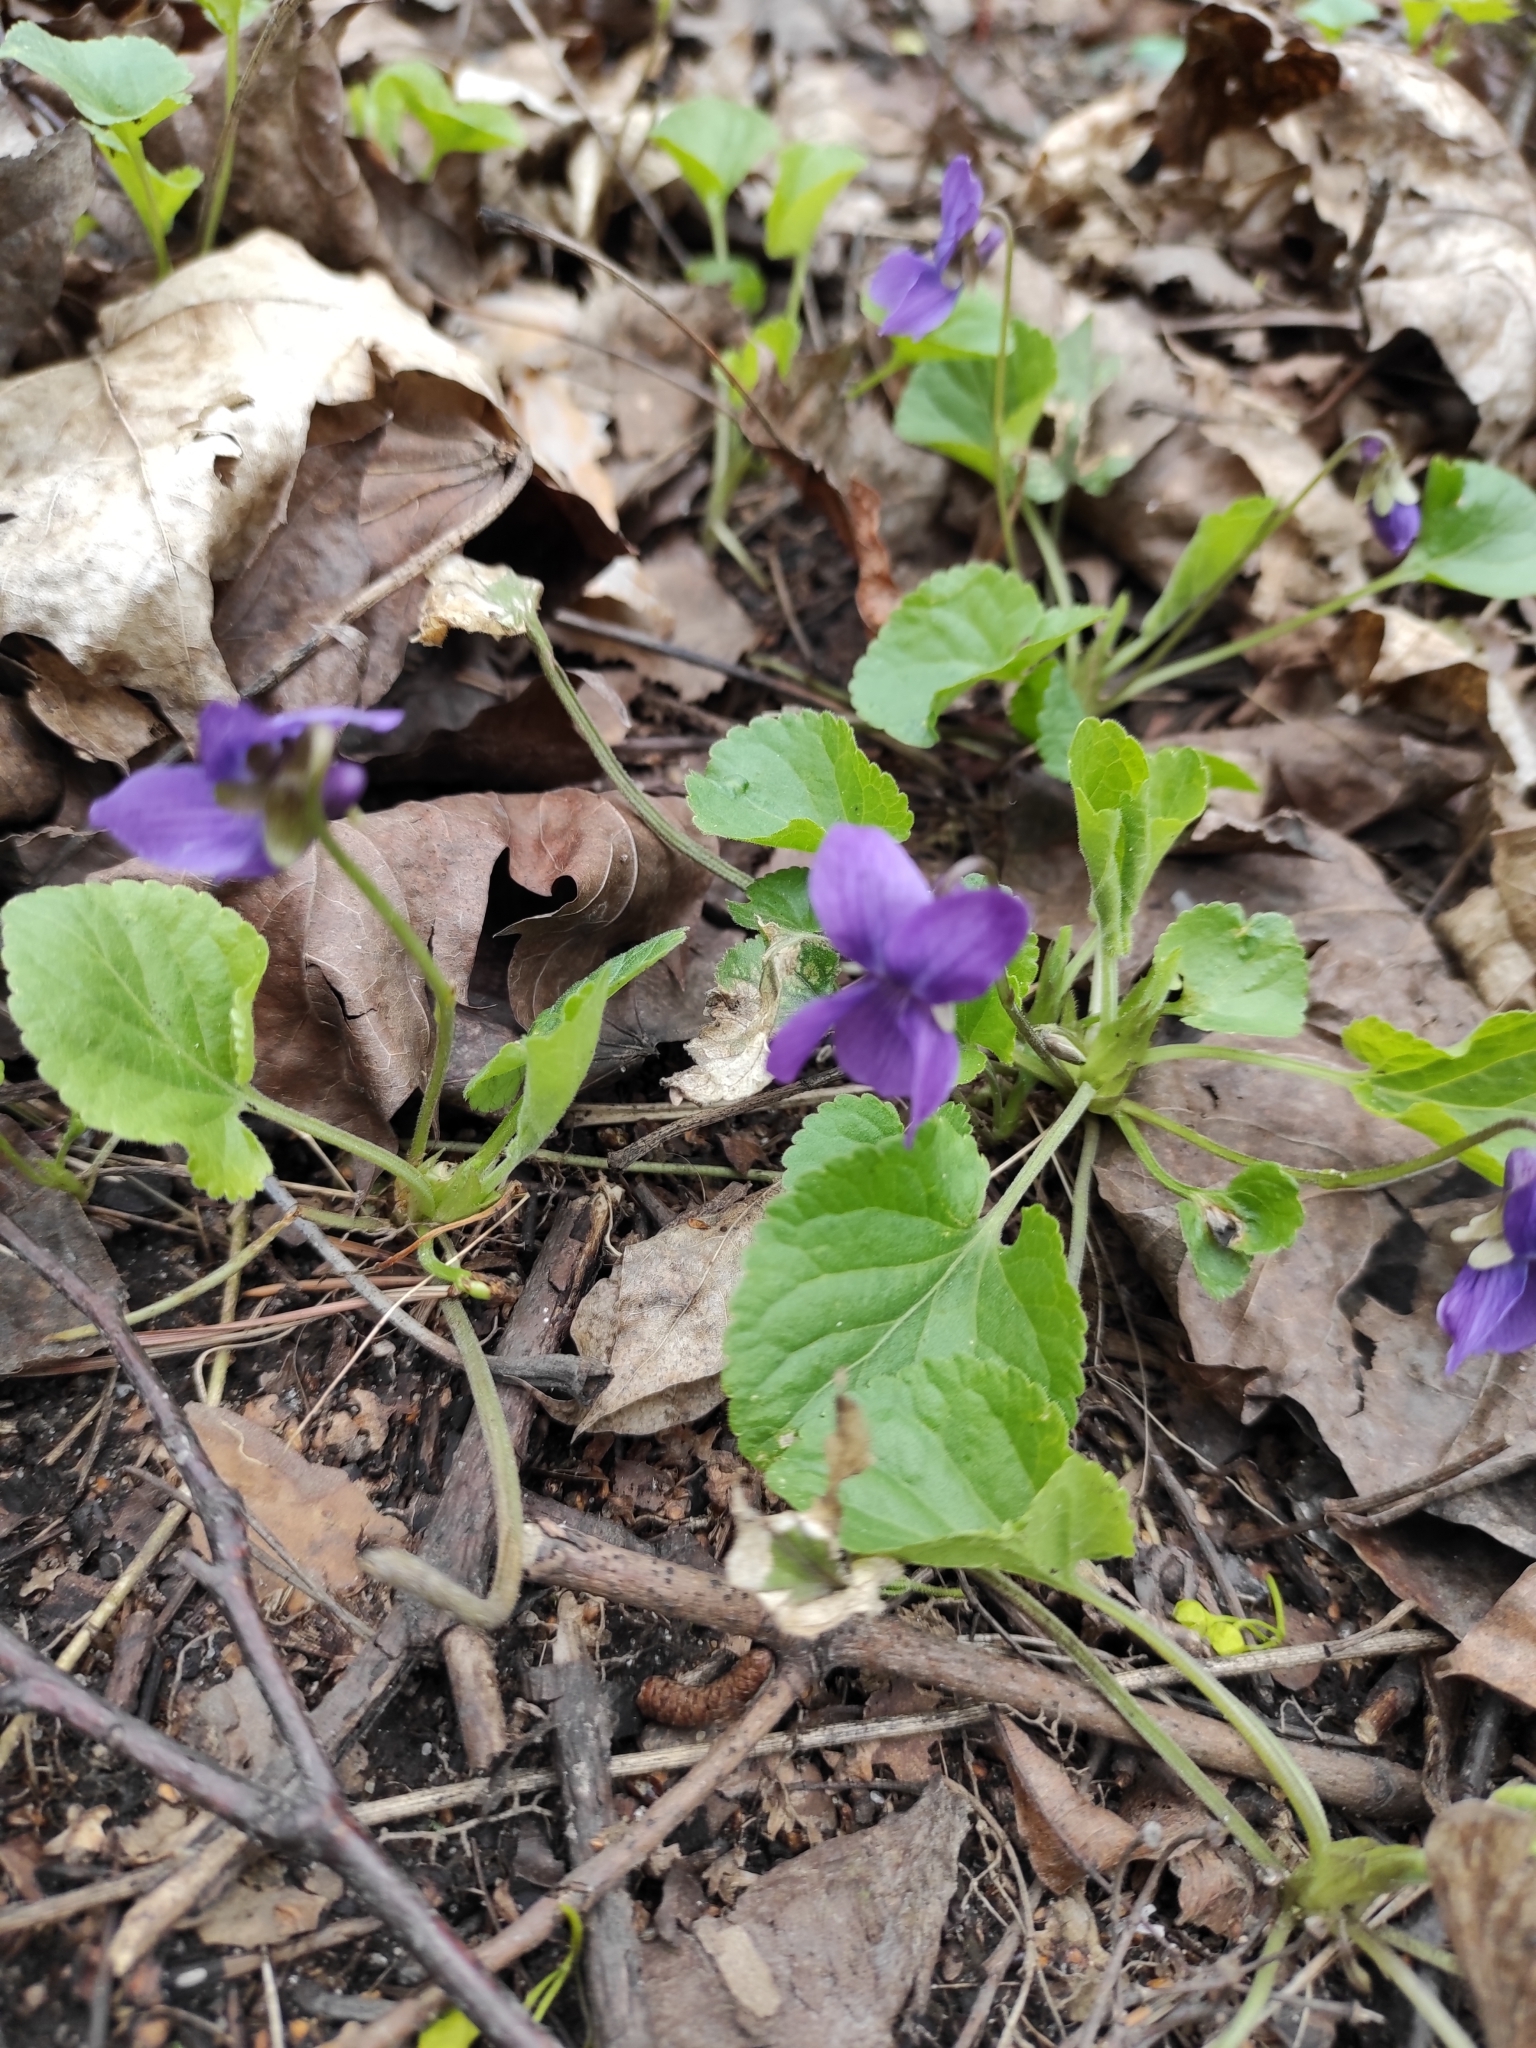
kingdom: Plantae
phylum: Tracheophyta
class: Magnoliopsida
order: Malpighiales
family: Violaceae
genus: Viola
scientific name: Viola odorata
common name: Sweet violet
